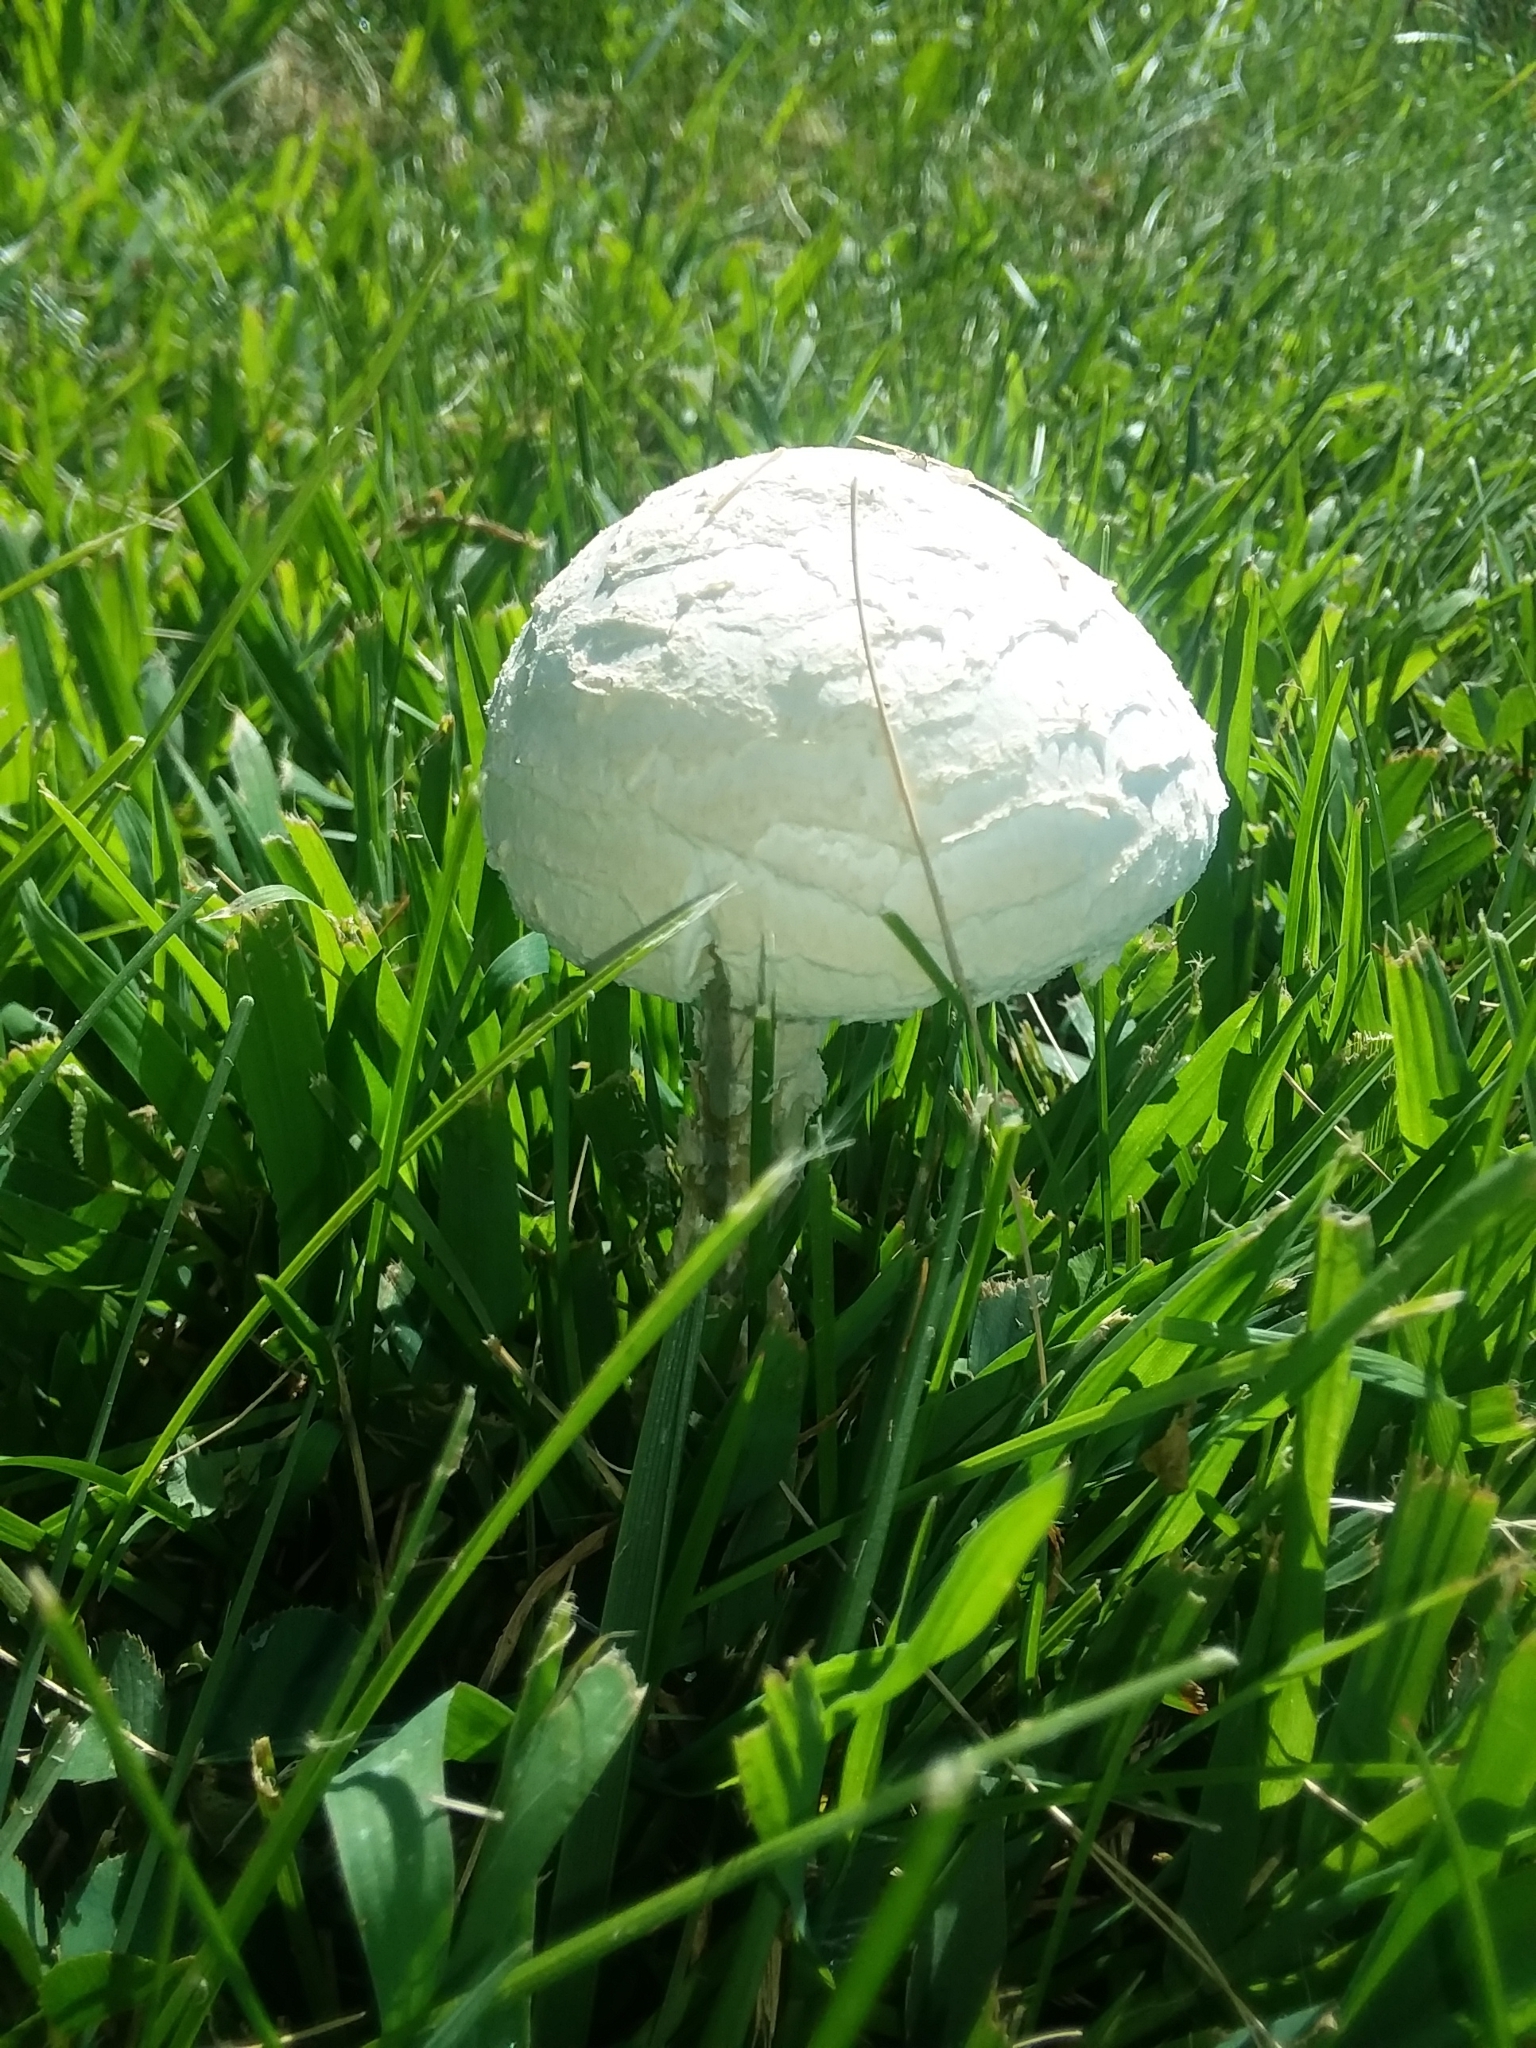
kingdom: Fungi
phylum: Basidiomycota
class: Agaricomycetes
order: Agaricales
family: Amanitaceae
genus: Amanita
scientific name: Amanita thiersii
